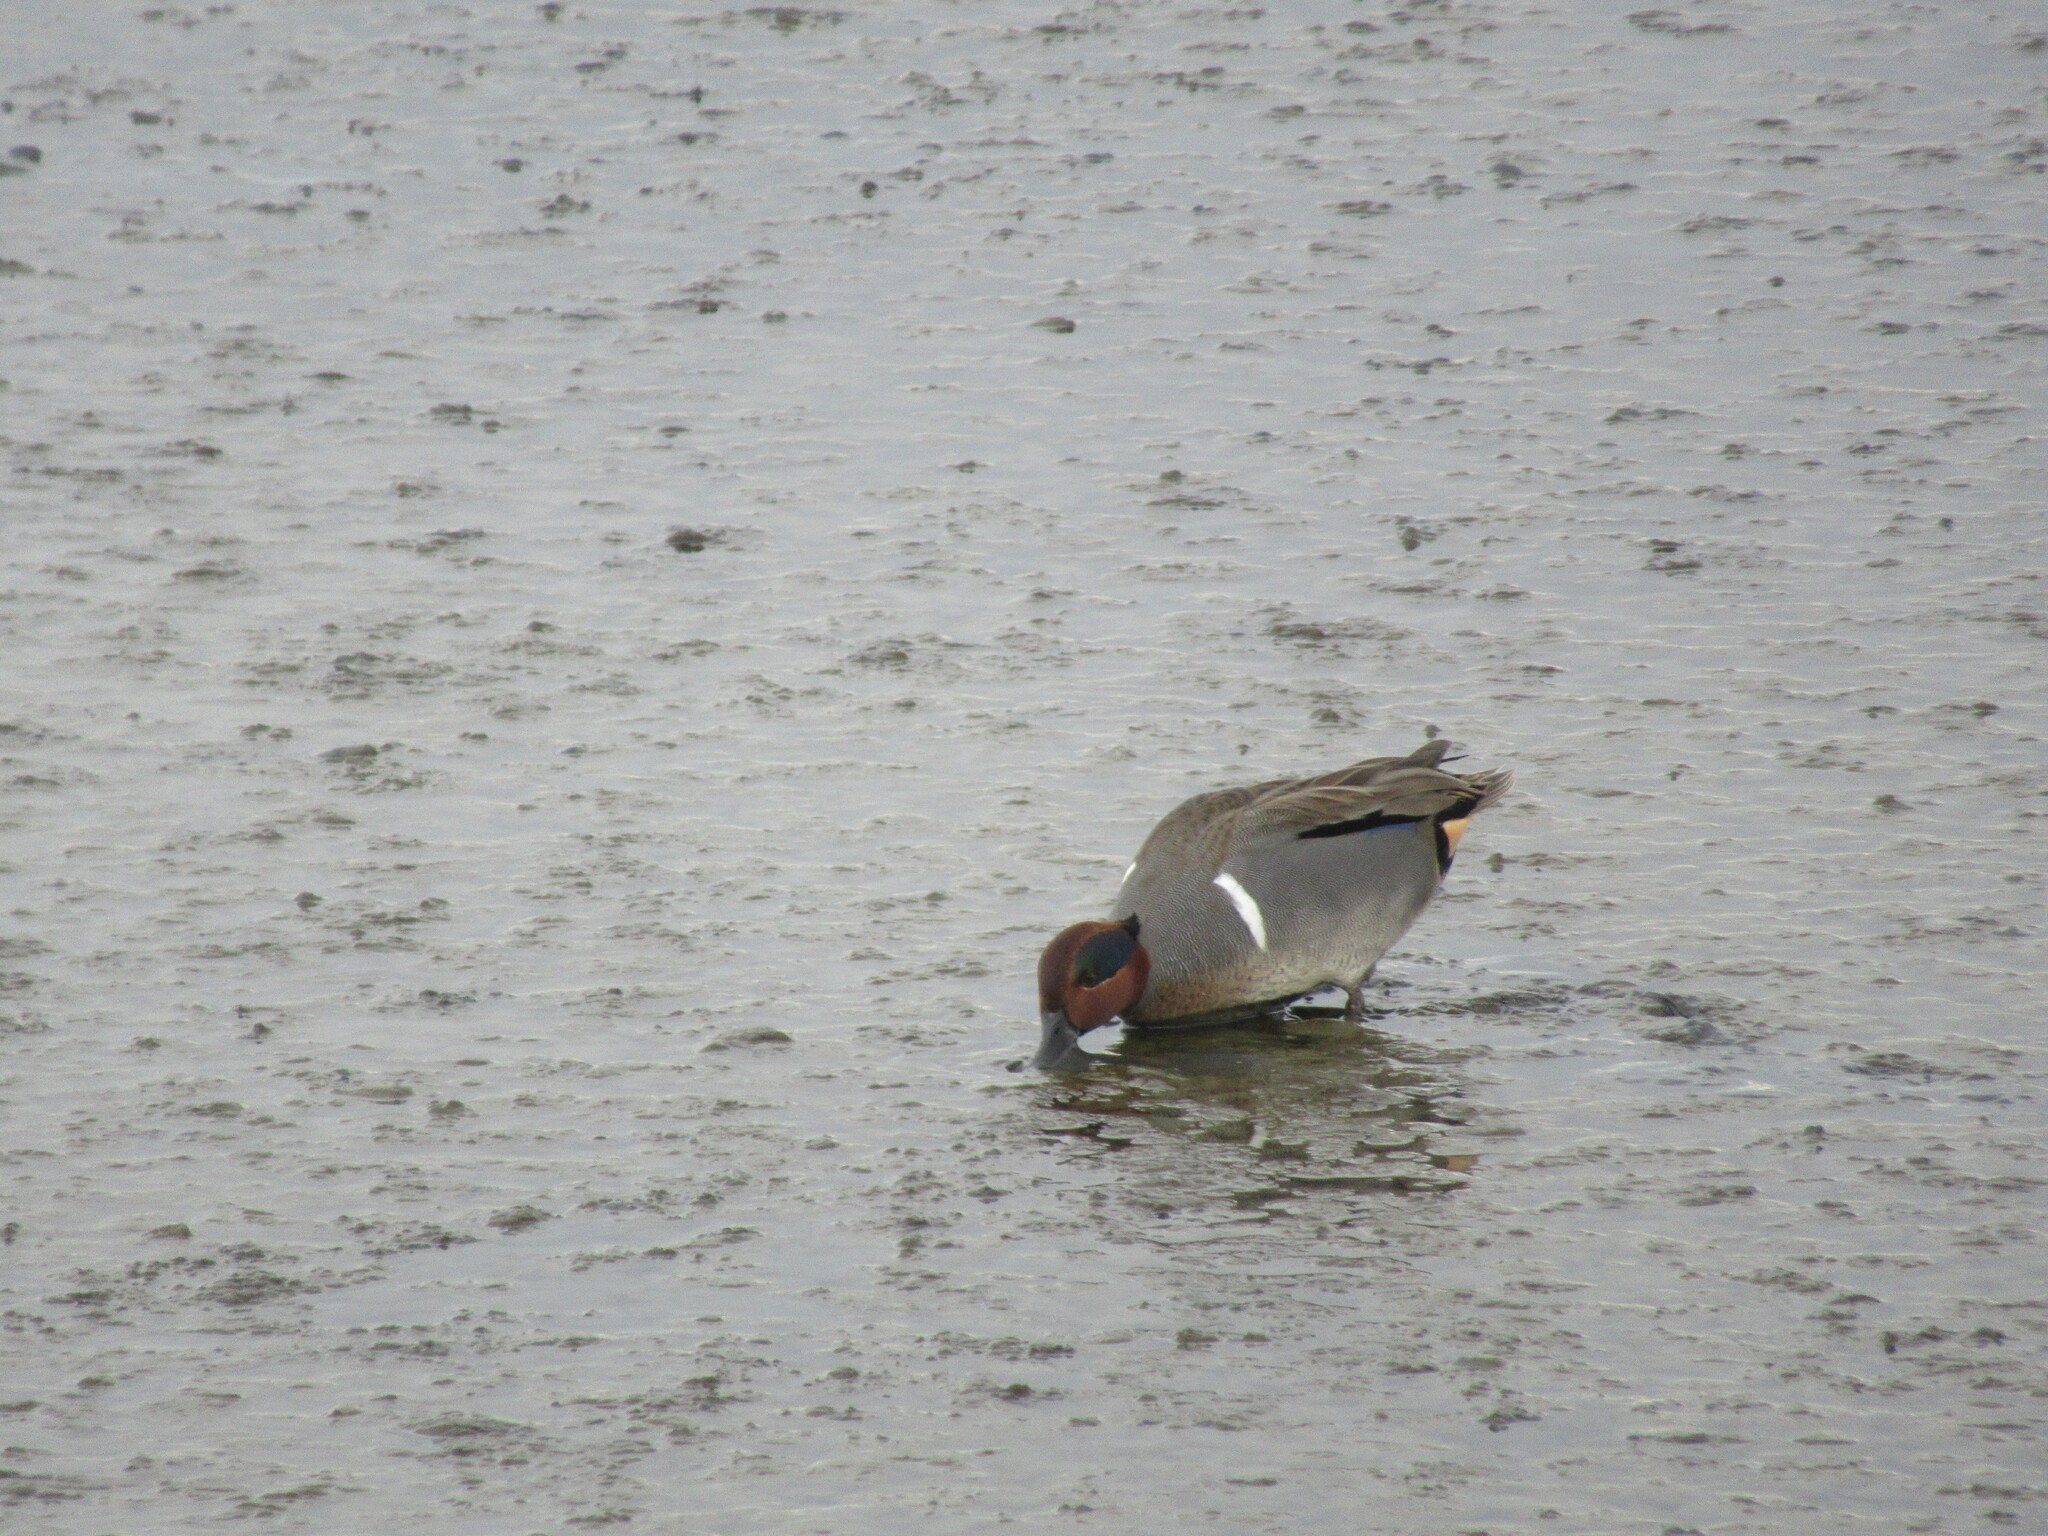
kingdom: Animalia
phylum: Chordata
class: Aves
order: Anseriformes
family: Anatidae
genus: Anas
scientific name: Anas crecca
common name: Eurasian teal
